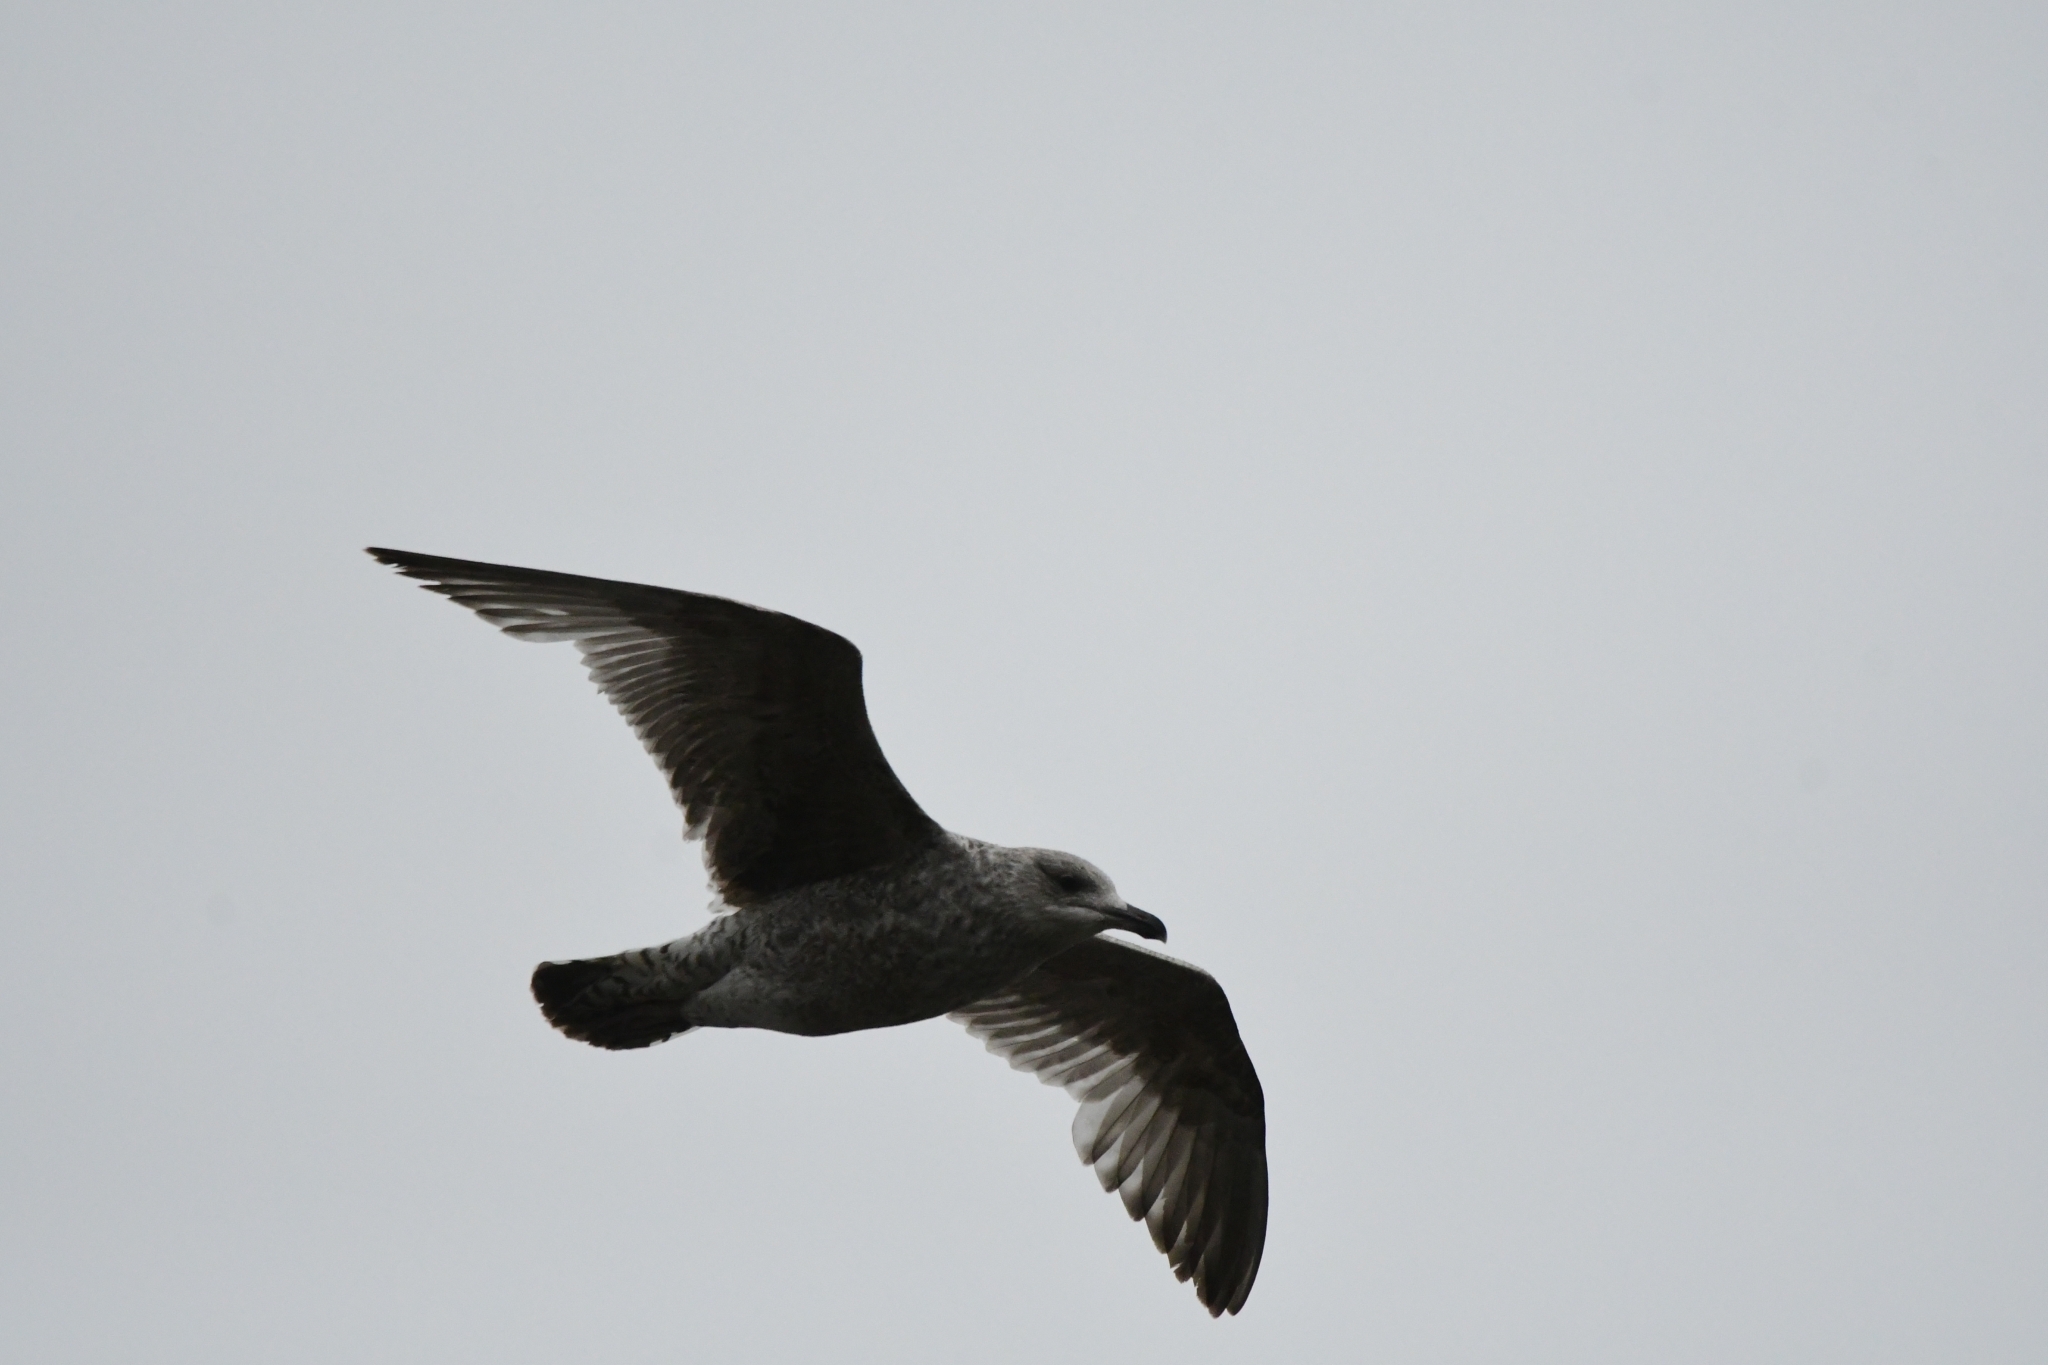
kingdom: Animalia
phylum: Chordata
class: Aves
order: Charadriiformes
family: Laridae
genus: Larus
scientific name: Larus argentatus
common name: Herring gull
